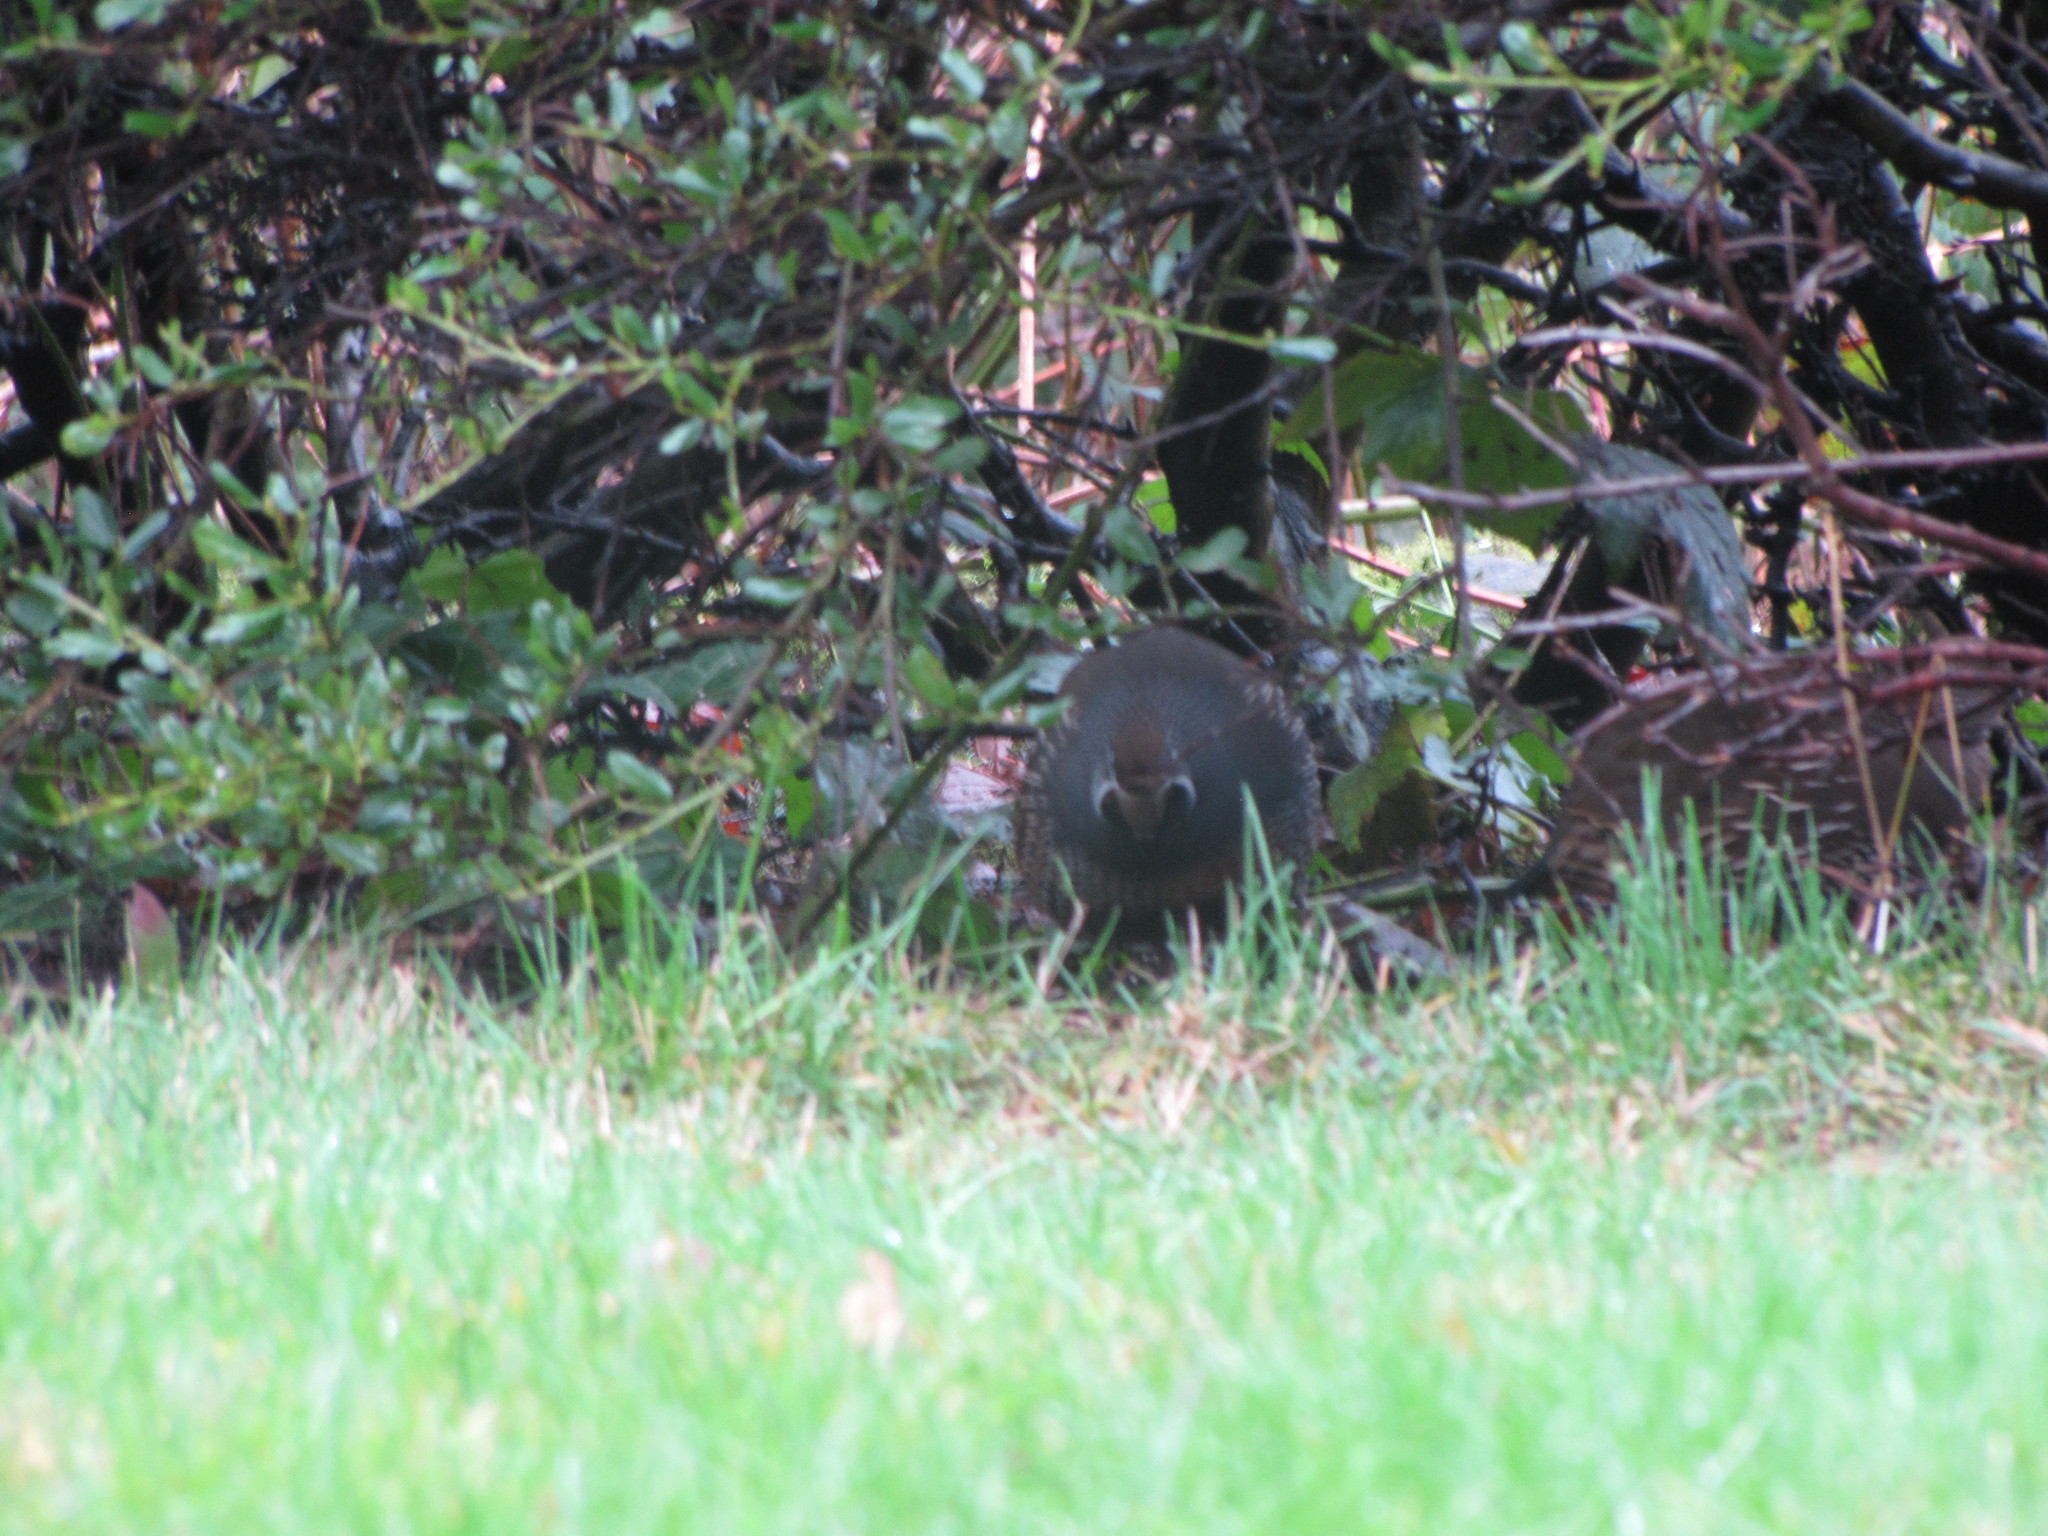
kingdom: Animalia
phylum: Chordata
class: Aves
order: Galliformes
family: Odontophoridae
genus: Callipepla
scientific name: Callipepla californica
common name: California quail
